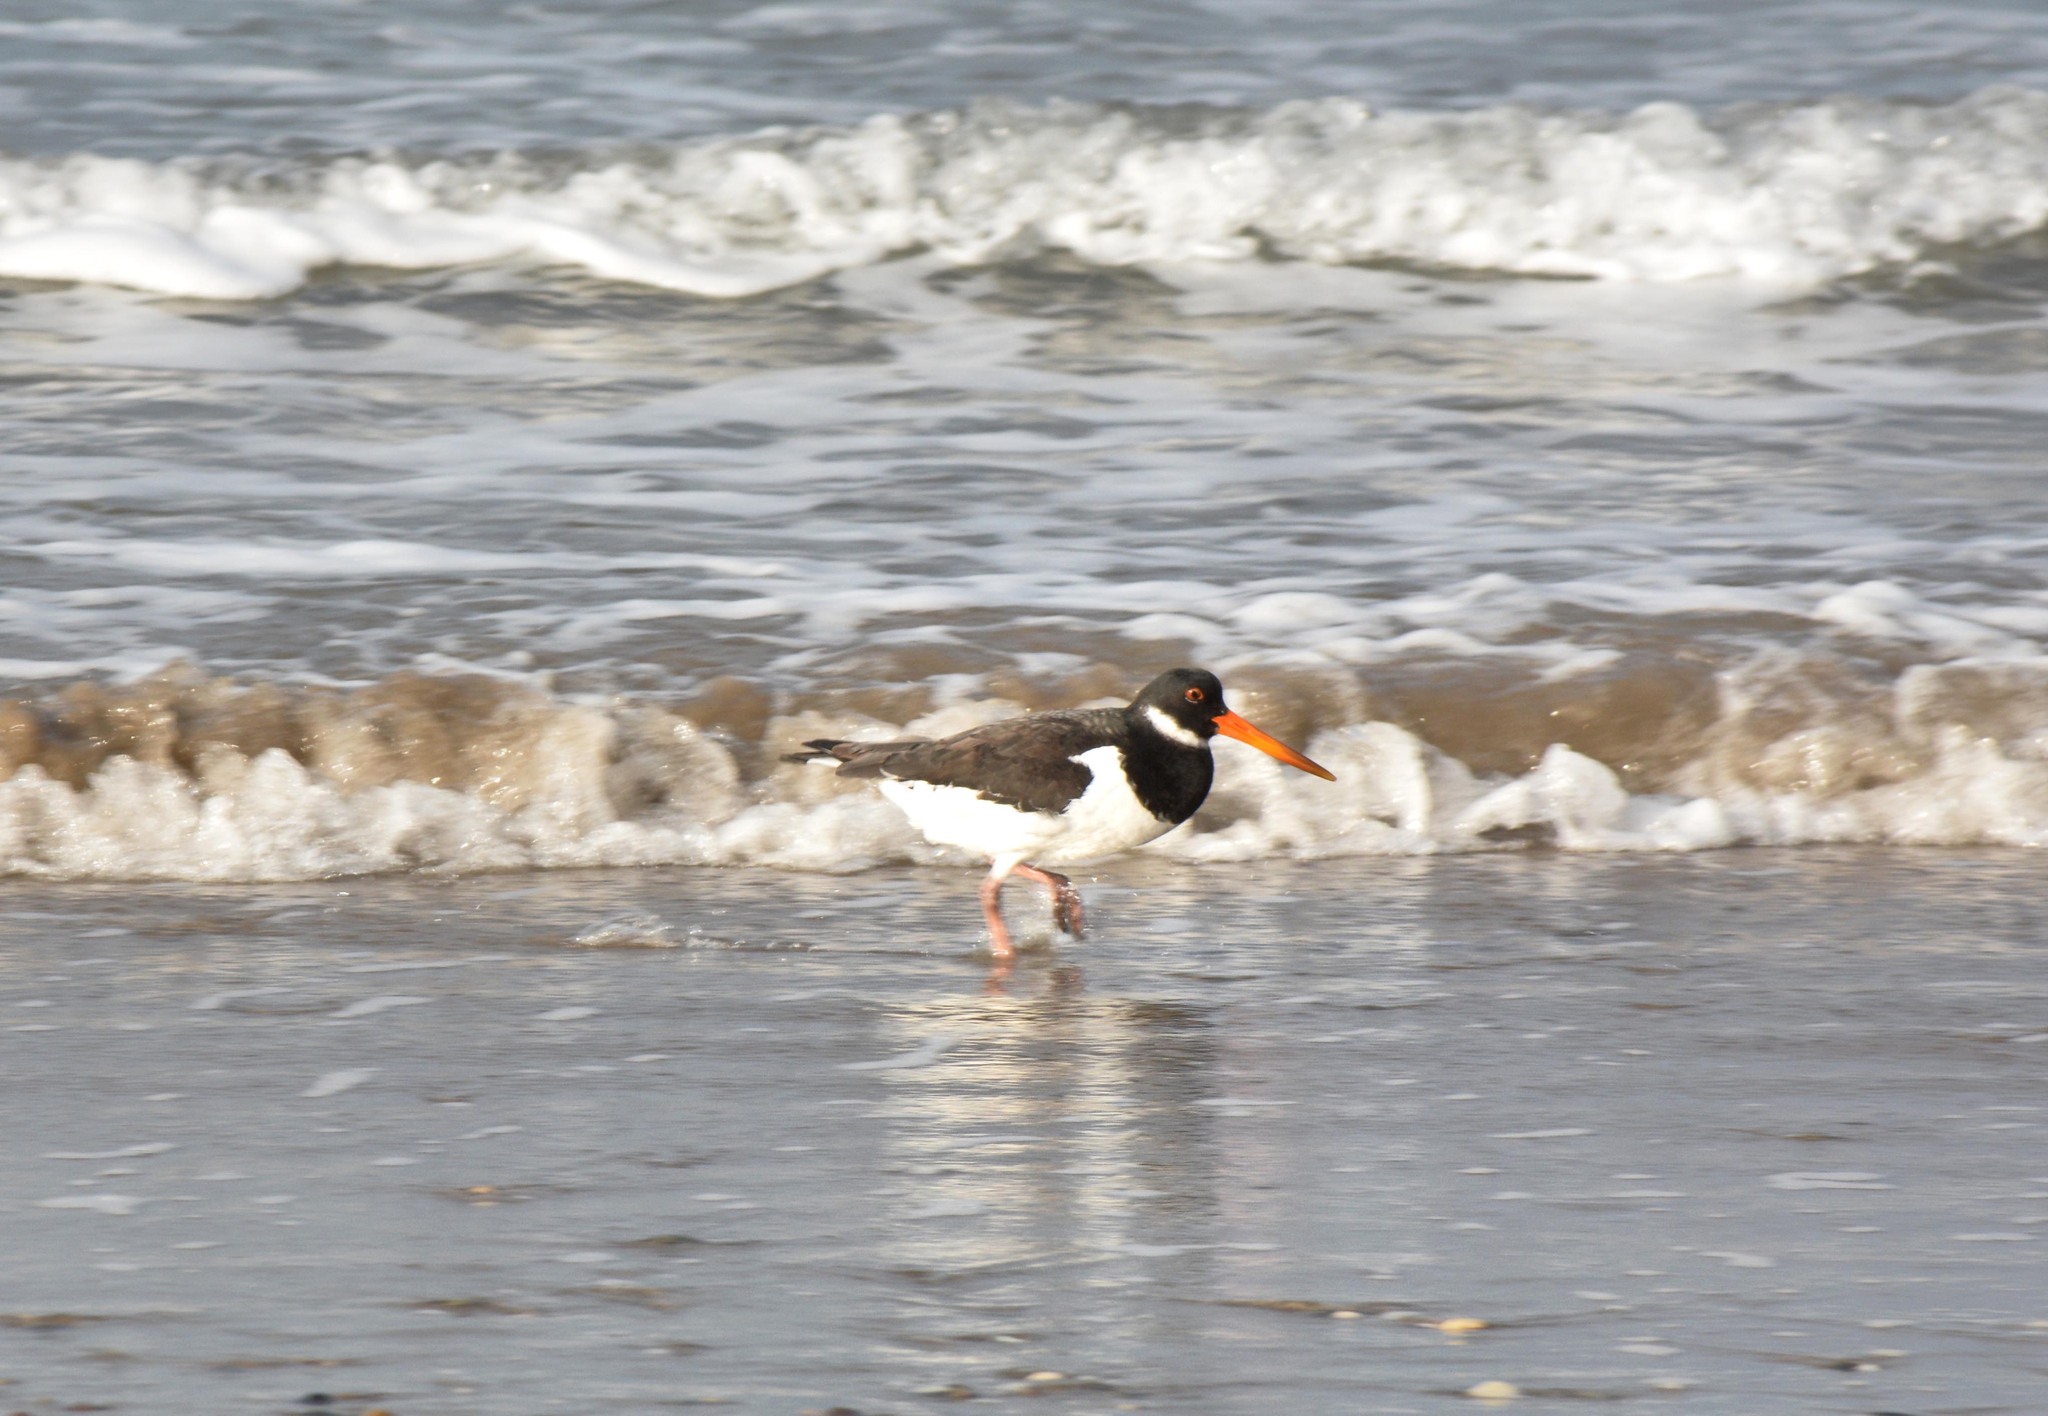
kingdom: Animalia
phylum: Chordata
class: Aves
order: Charadriiformes
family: Haematopodidae
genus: Haematopus
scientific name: Haematopus ostralegus
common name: Eurasian oystercatcher
